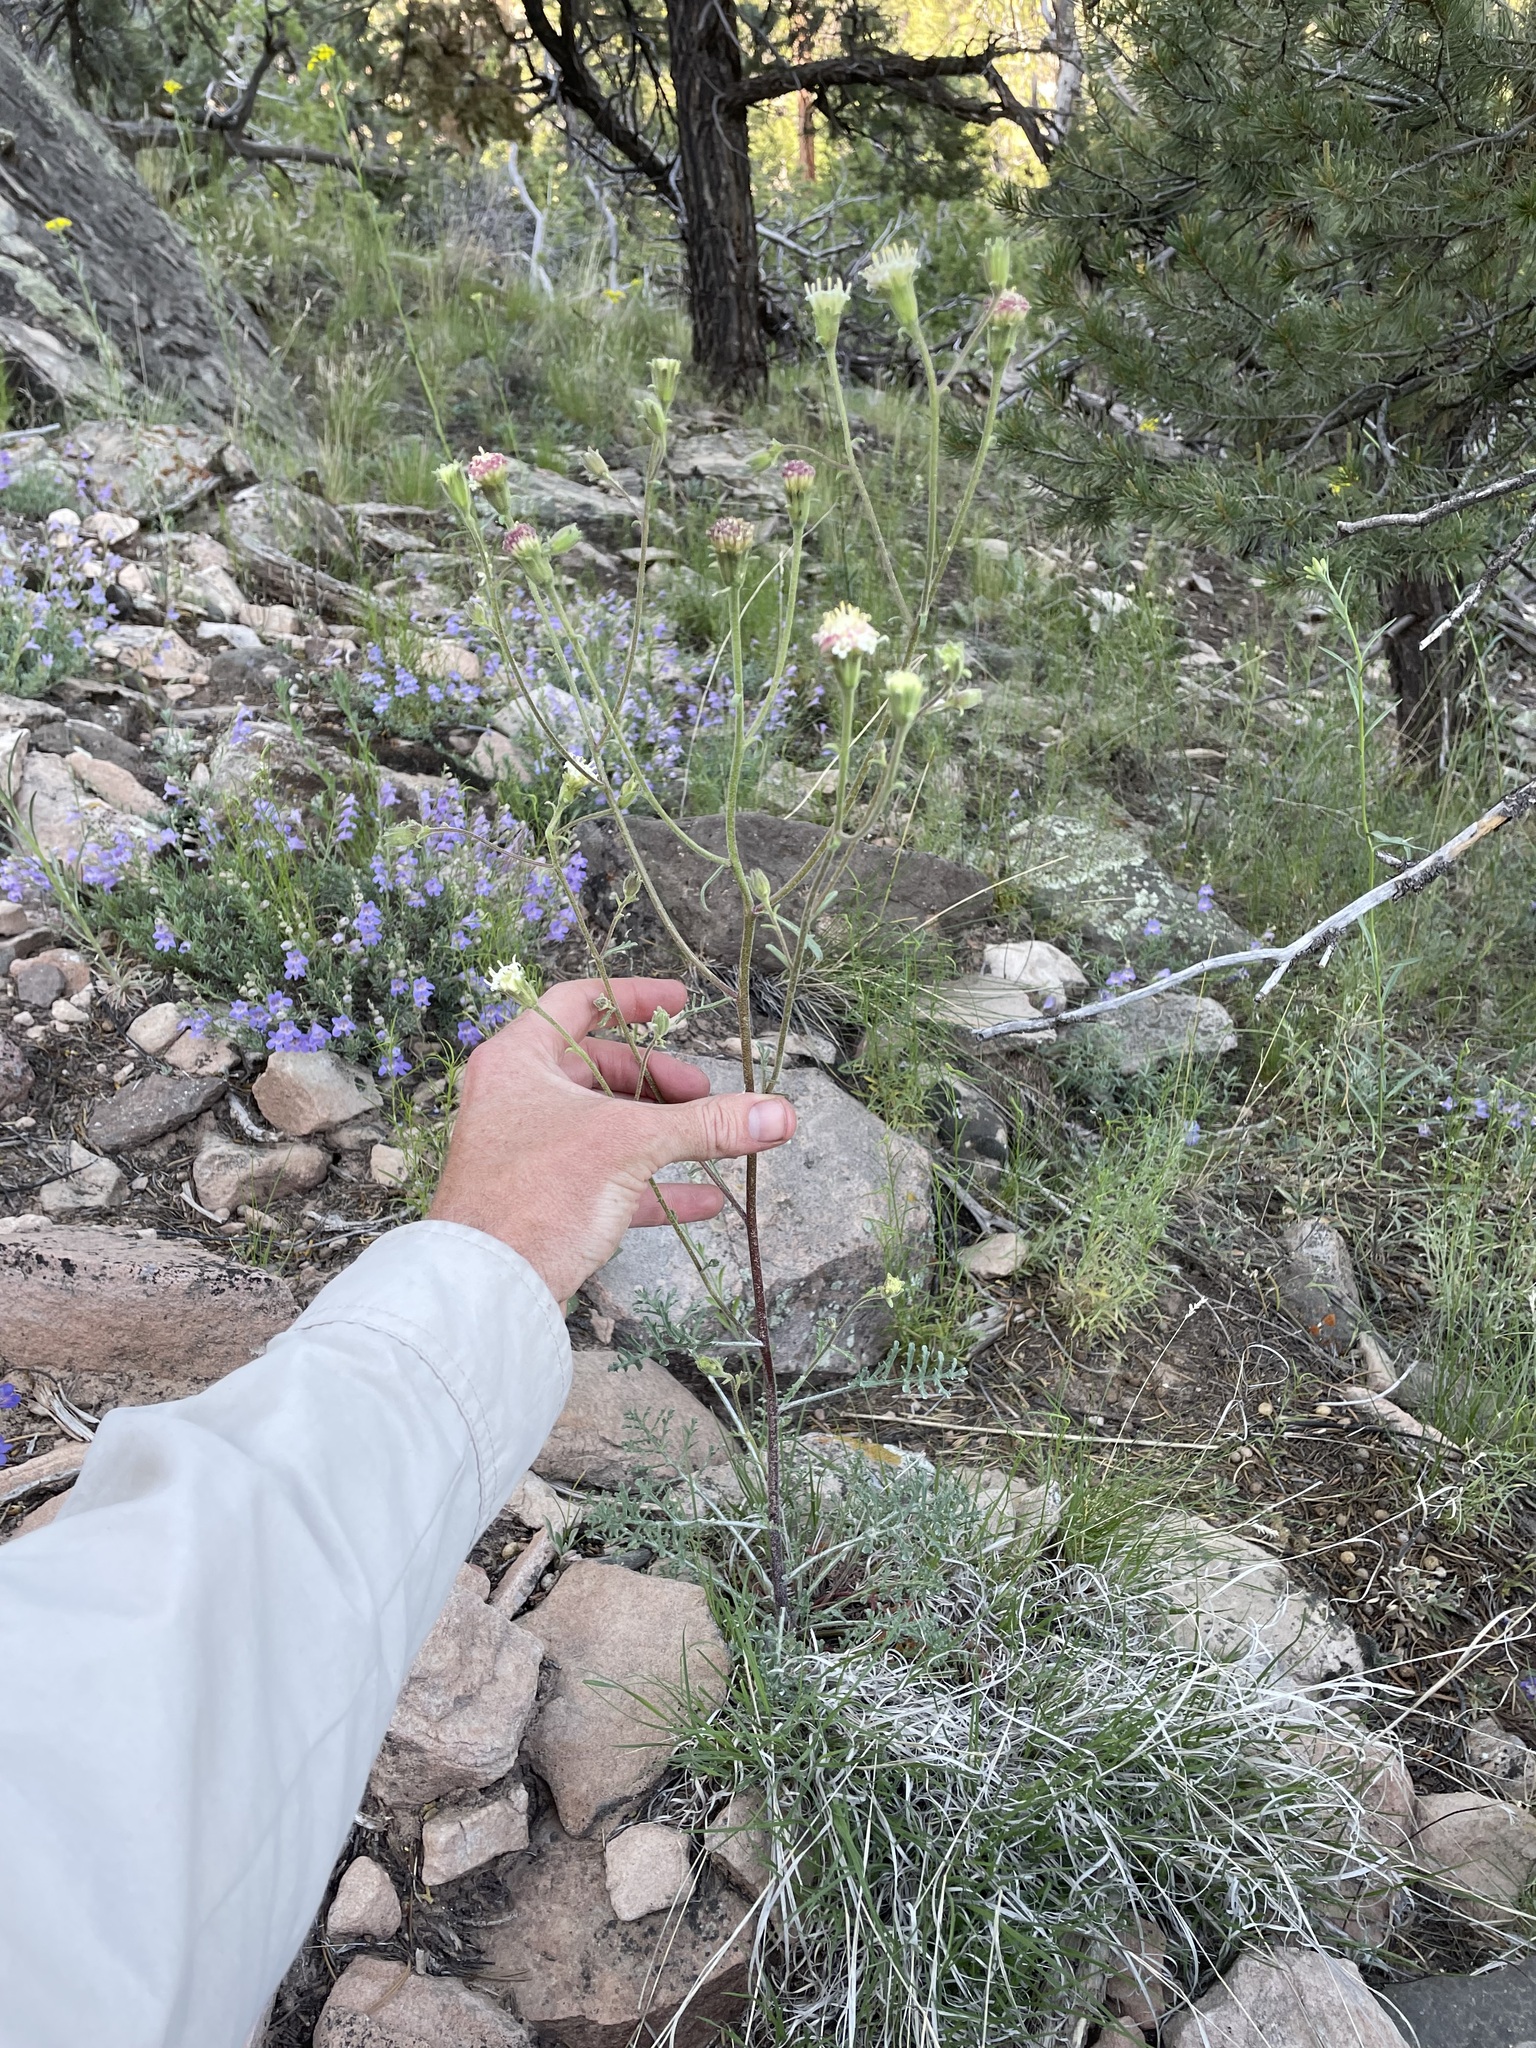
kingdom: Plantae
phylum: Tracheophyta
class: Magnoliopsida
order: Asterales
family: Asteraceae
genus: Chaenactis
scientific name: Chaenactis douglasii
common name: Hoary pincushion
